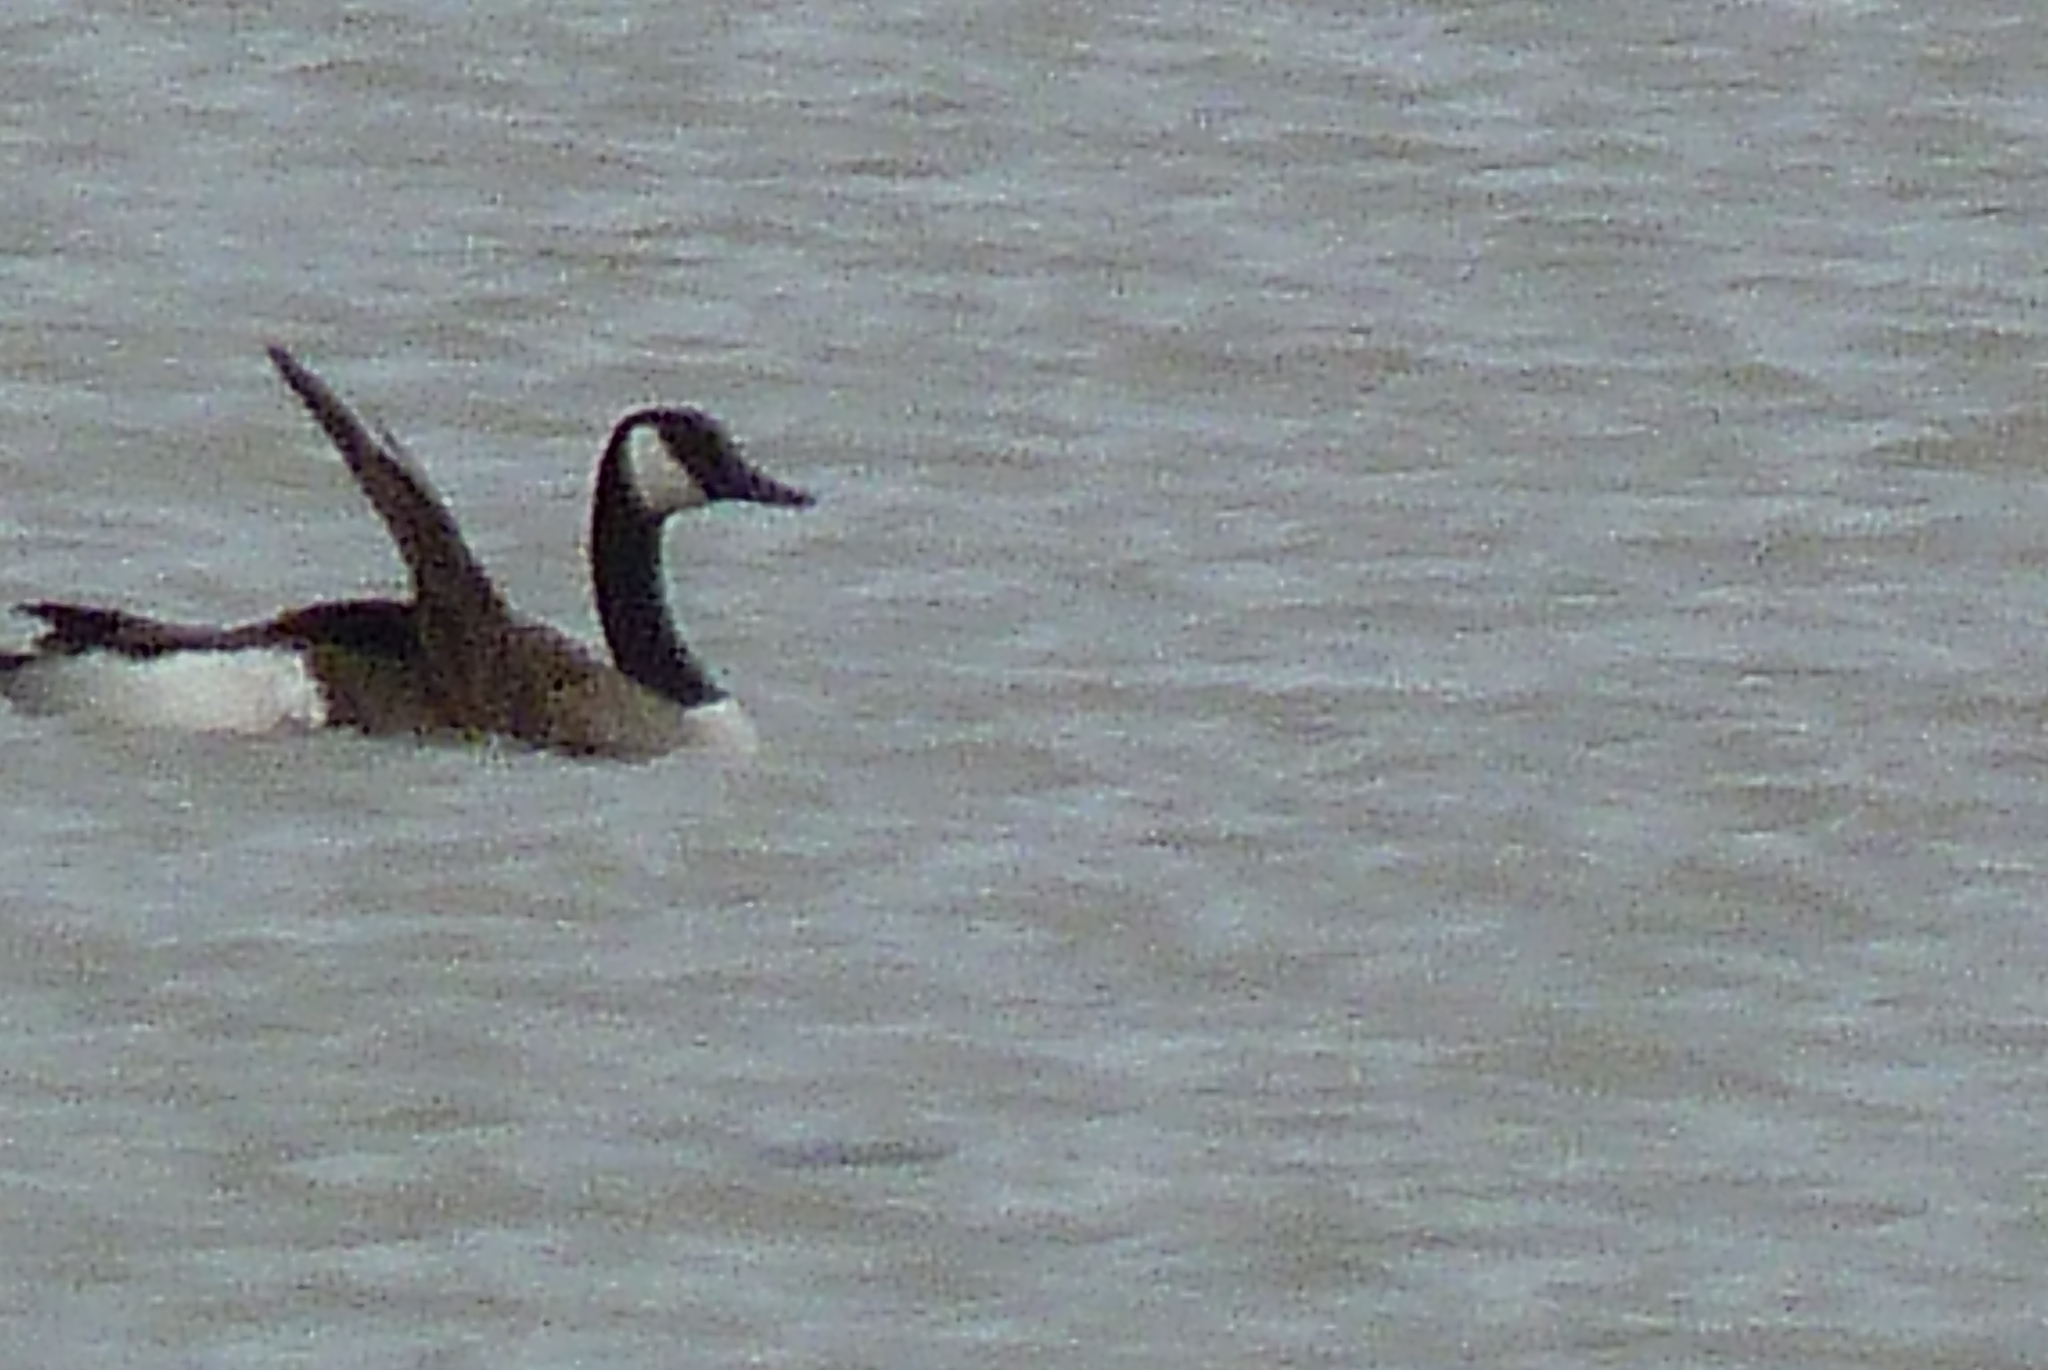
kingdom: Animalia
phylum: Chordata
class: Aves
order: Anseriformes
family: Anatidae
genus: Branta
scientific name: Branta canadensis
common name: Canada goose
